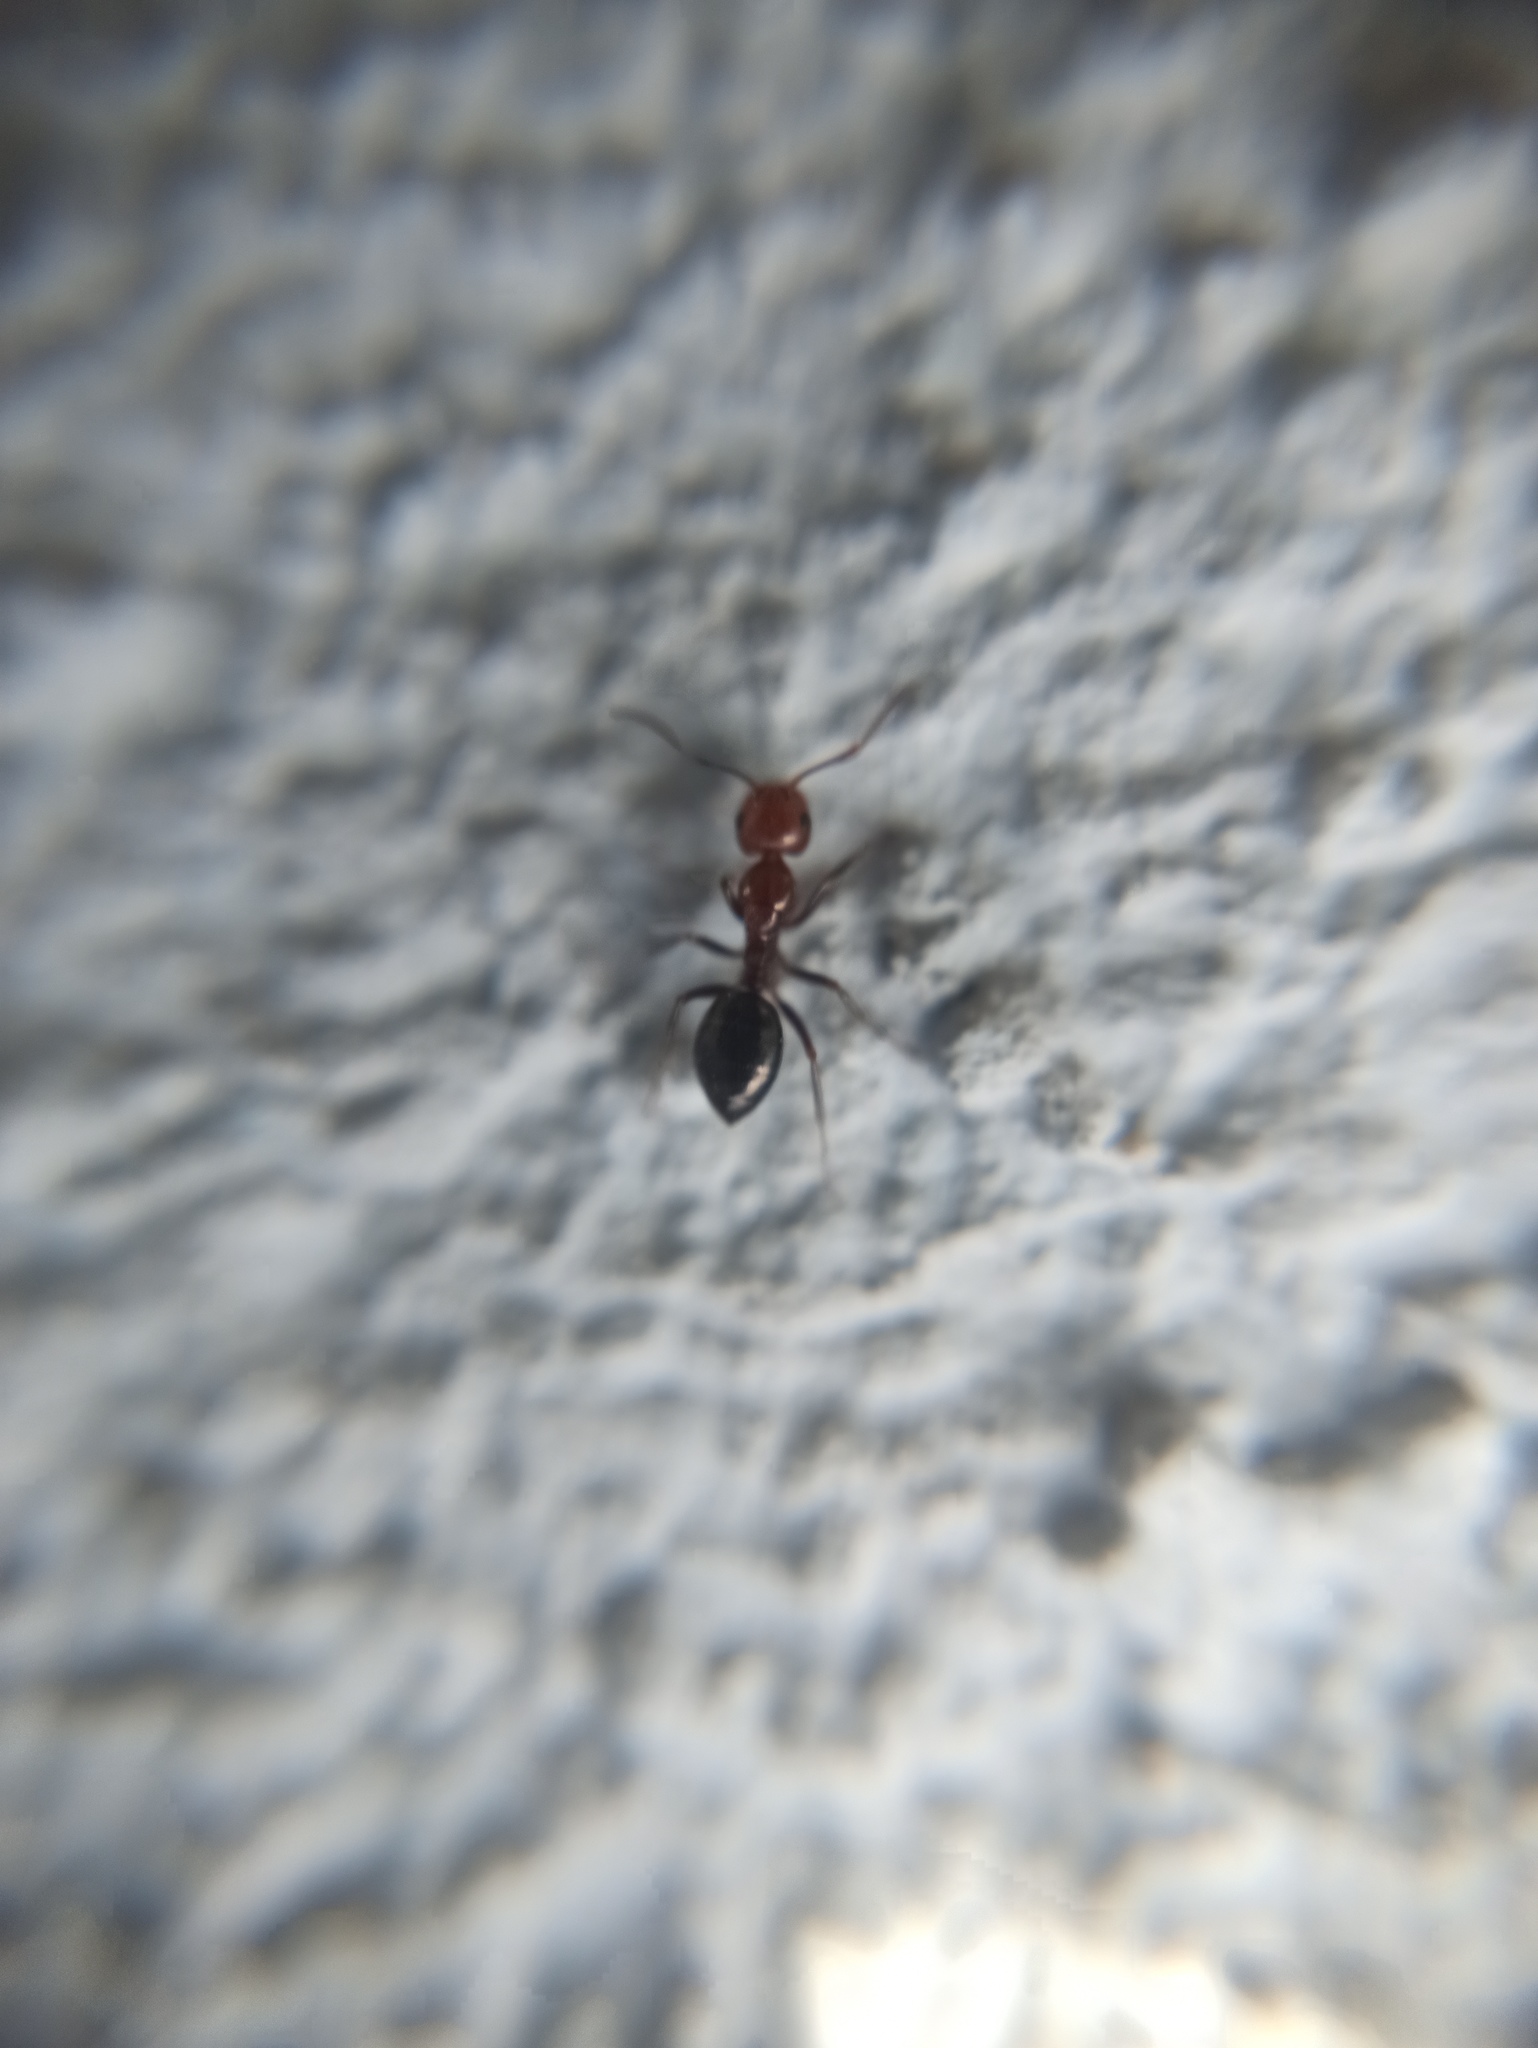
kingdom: Animalia
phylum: Arthropoda
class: Insecta
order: Hymenoptera
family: Formicidae
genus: Camponotus
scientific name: Camponotus lateralis
